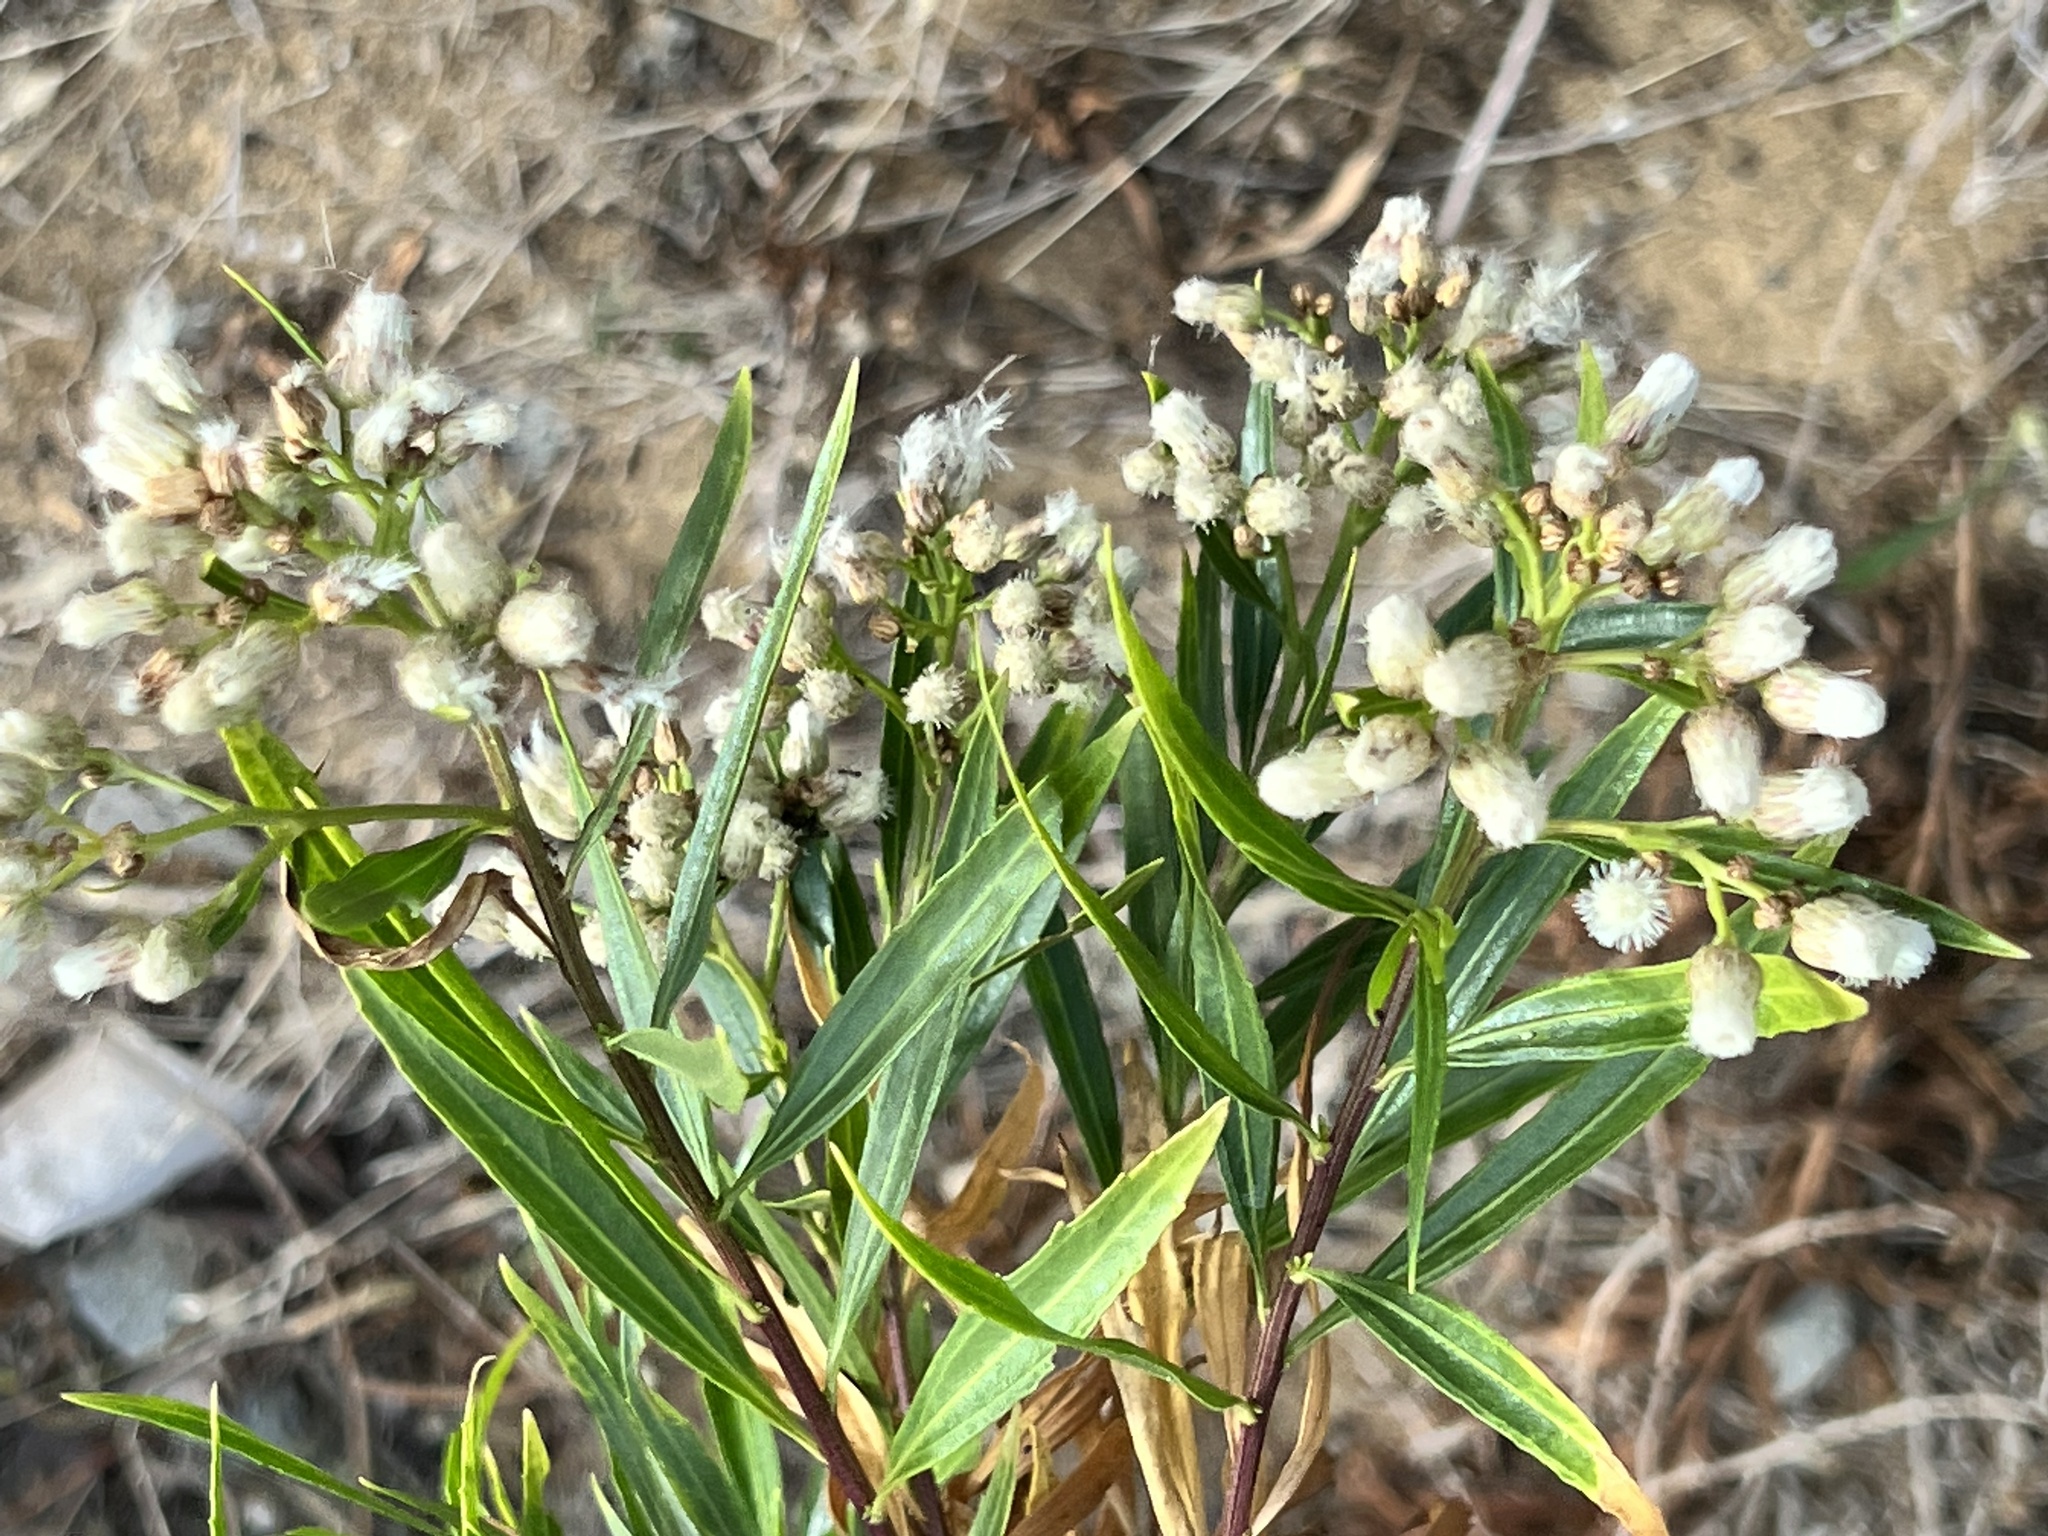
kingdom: Plantae
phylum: Tracheophyta
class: Magnoliopsida
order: Asterales
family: Asteraceae
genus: Baccharis
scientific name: Baccharis salicifolia
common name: Sticky baccharis
